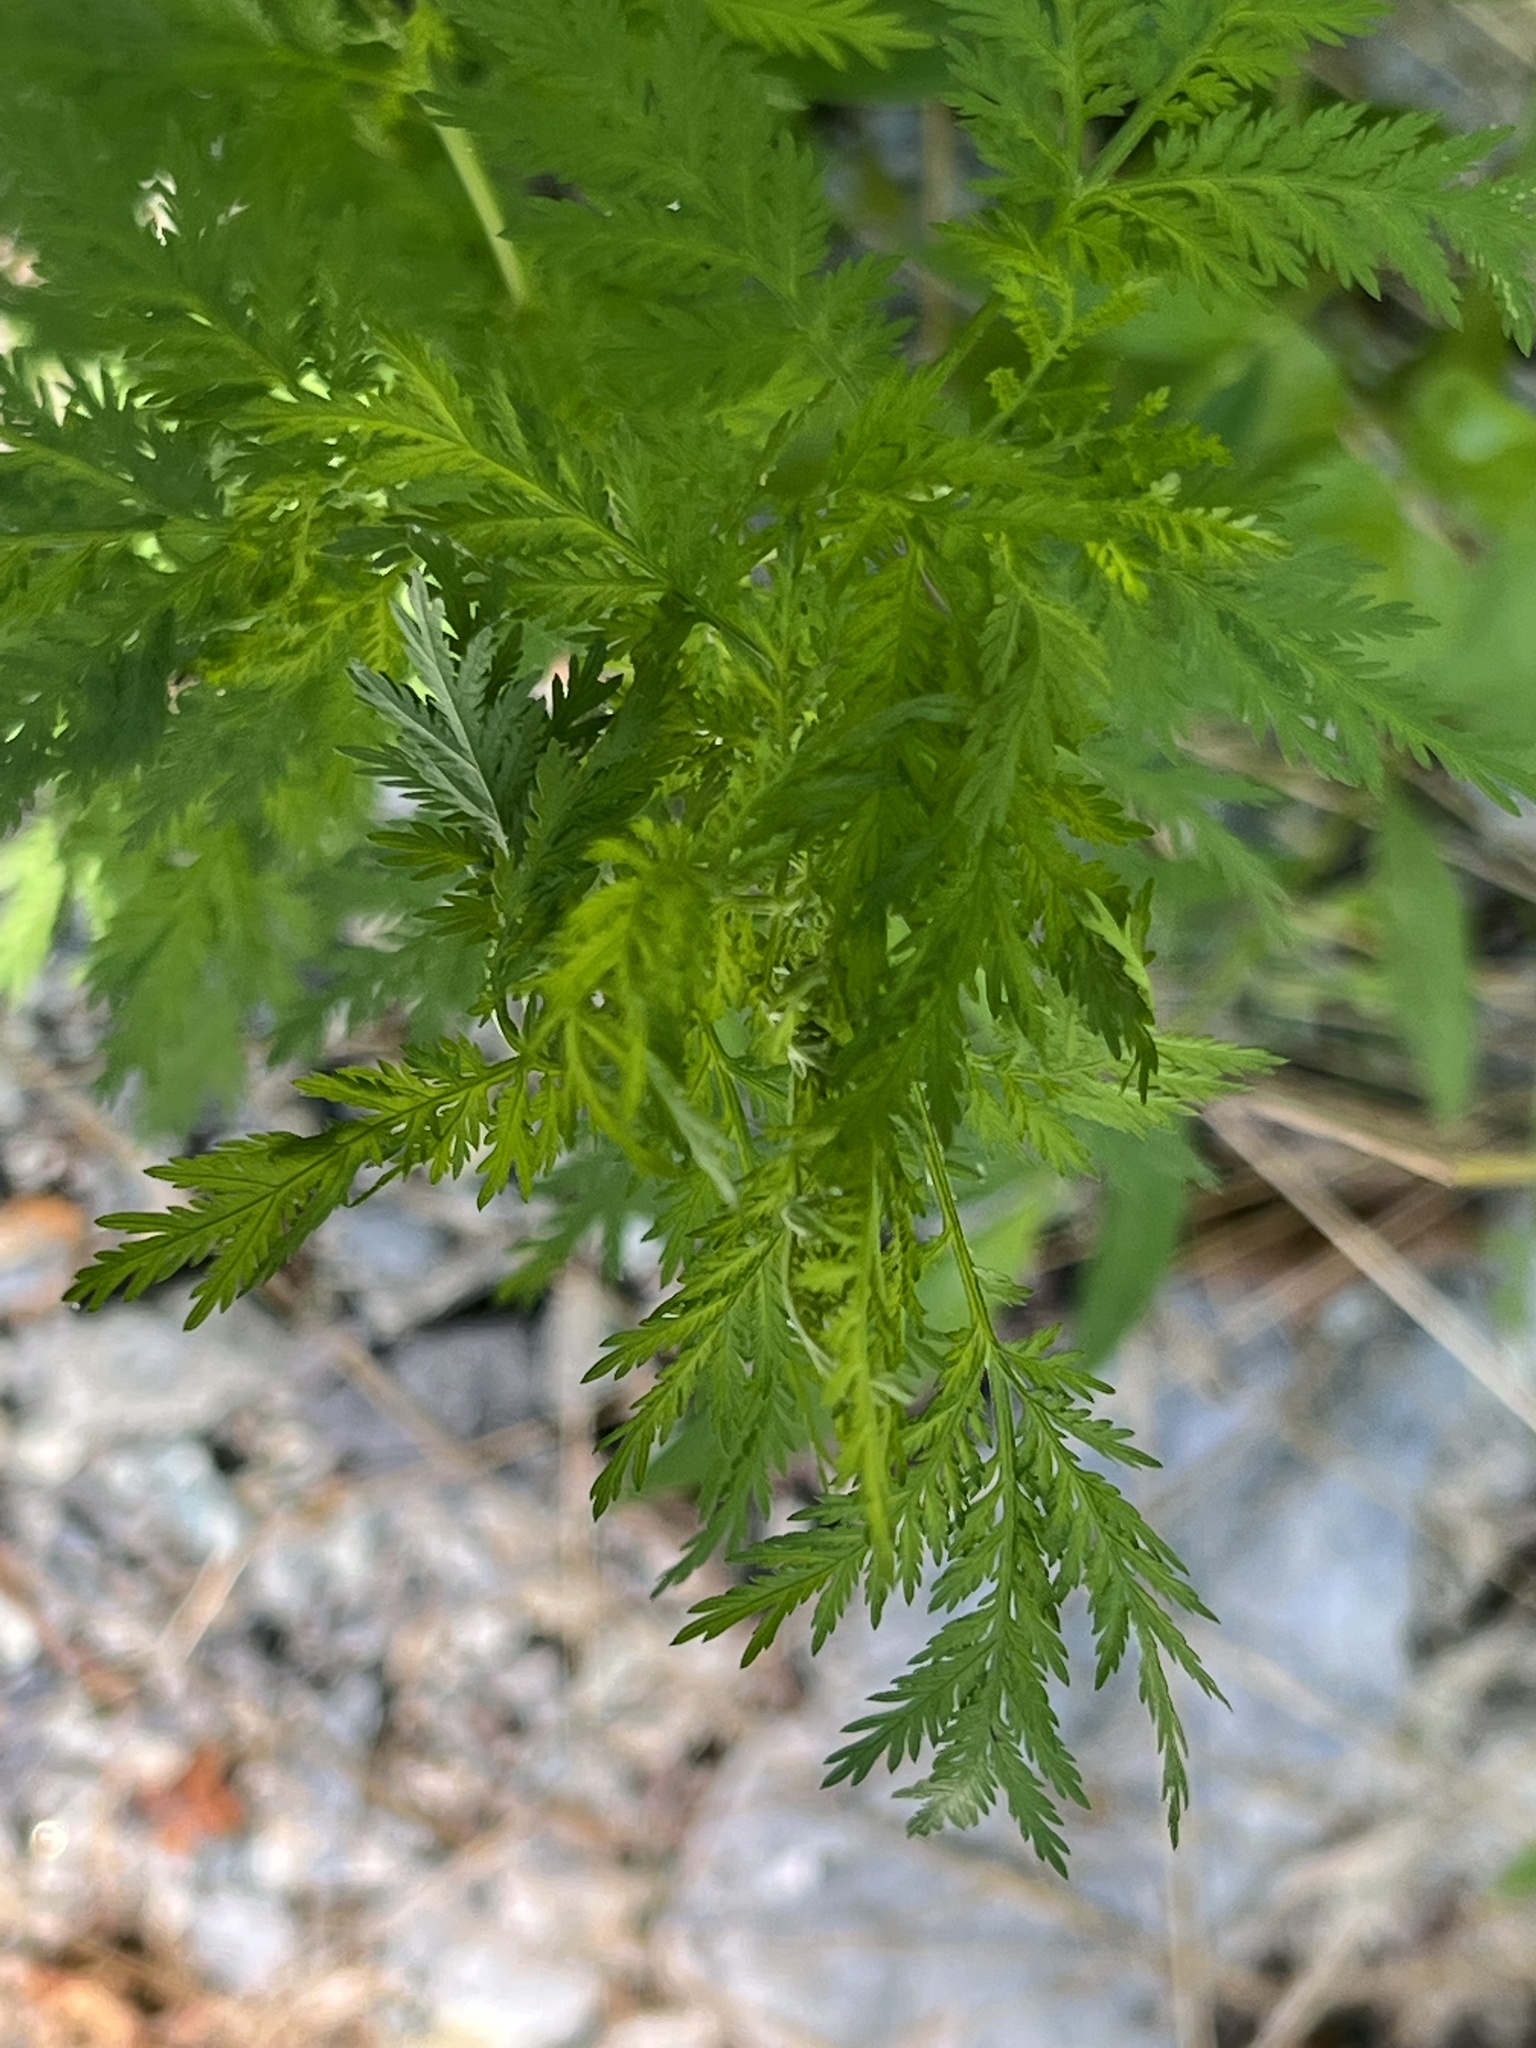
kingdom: Plantae
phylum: Tracheophyta
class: Magnoliopsida
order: Asterales
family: Asteraceae
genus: Artemisia
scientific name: Artemisia annua
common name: Sweet sagewort
